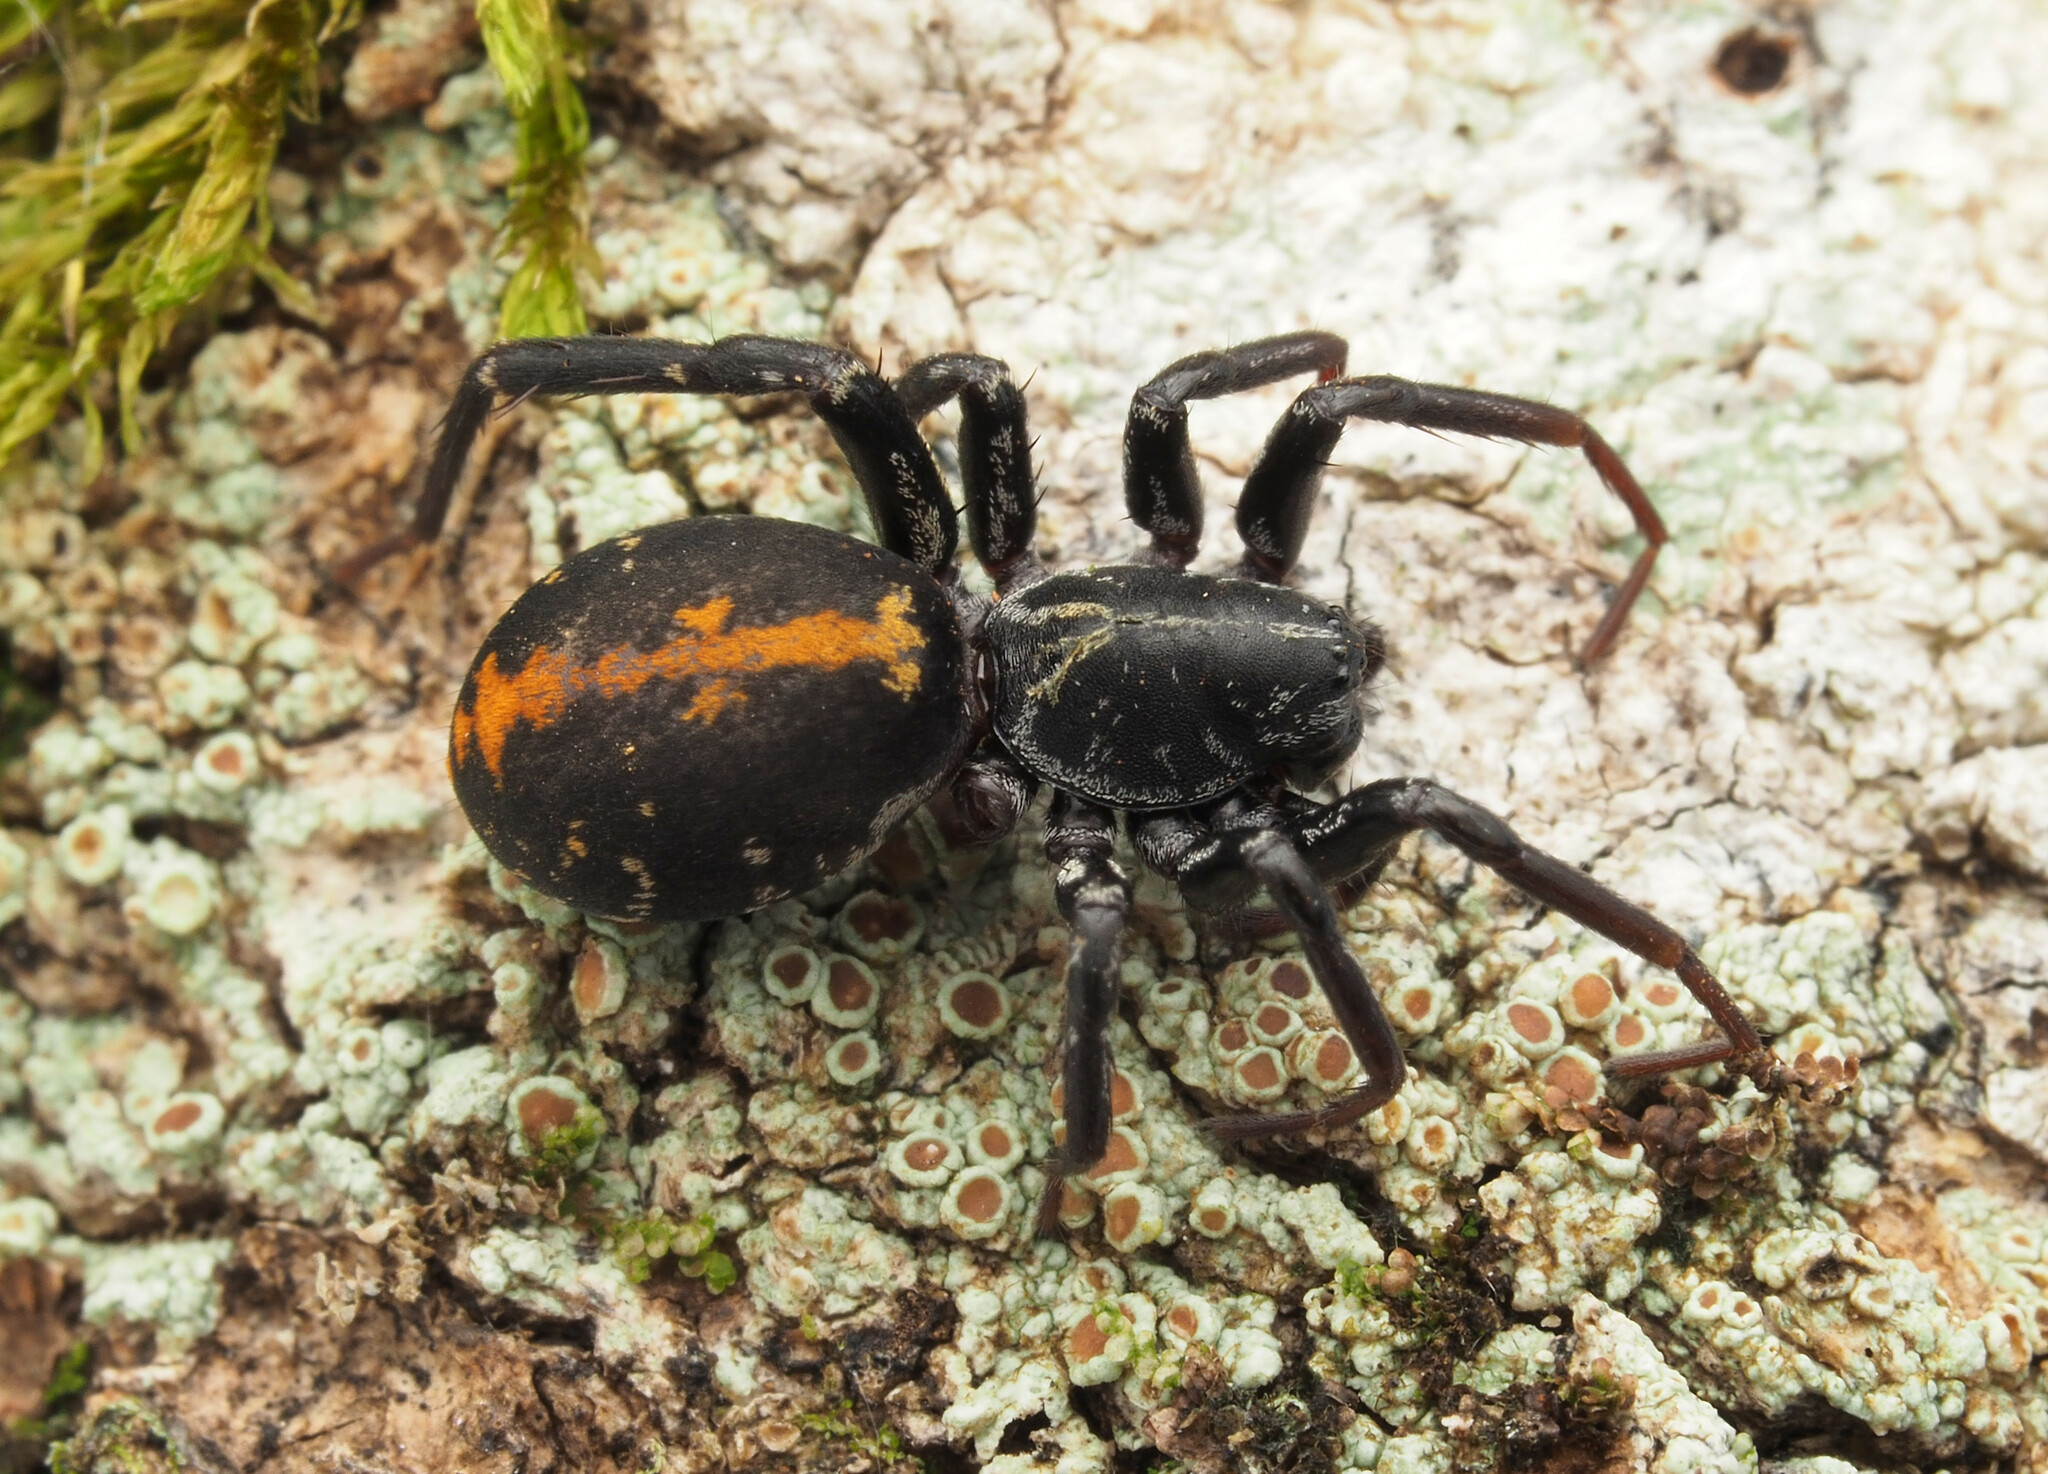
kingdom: Animalia
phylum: Arthropoda
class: Arachnida
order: Araneae
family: Corinnidae
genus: Nyssus
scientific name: Nyssus
